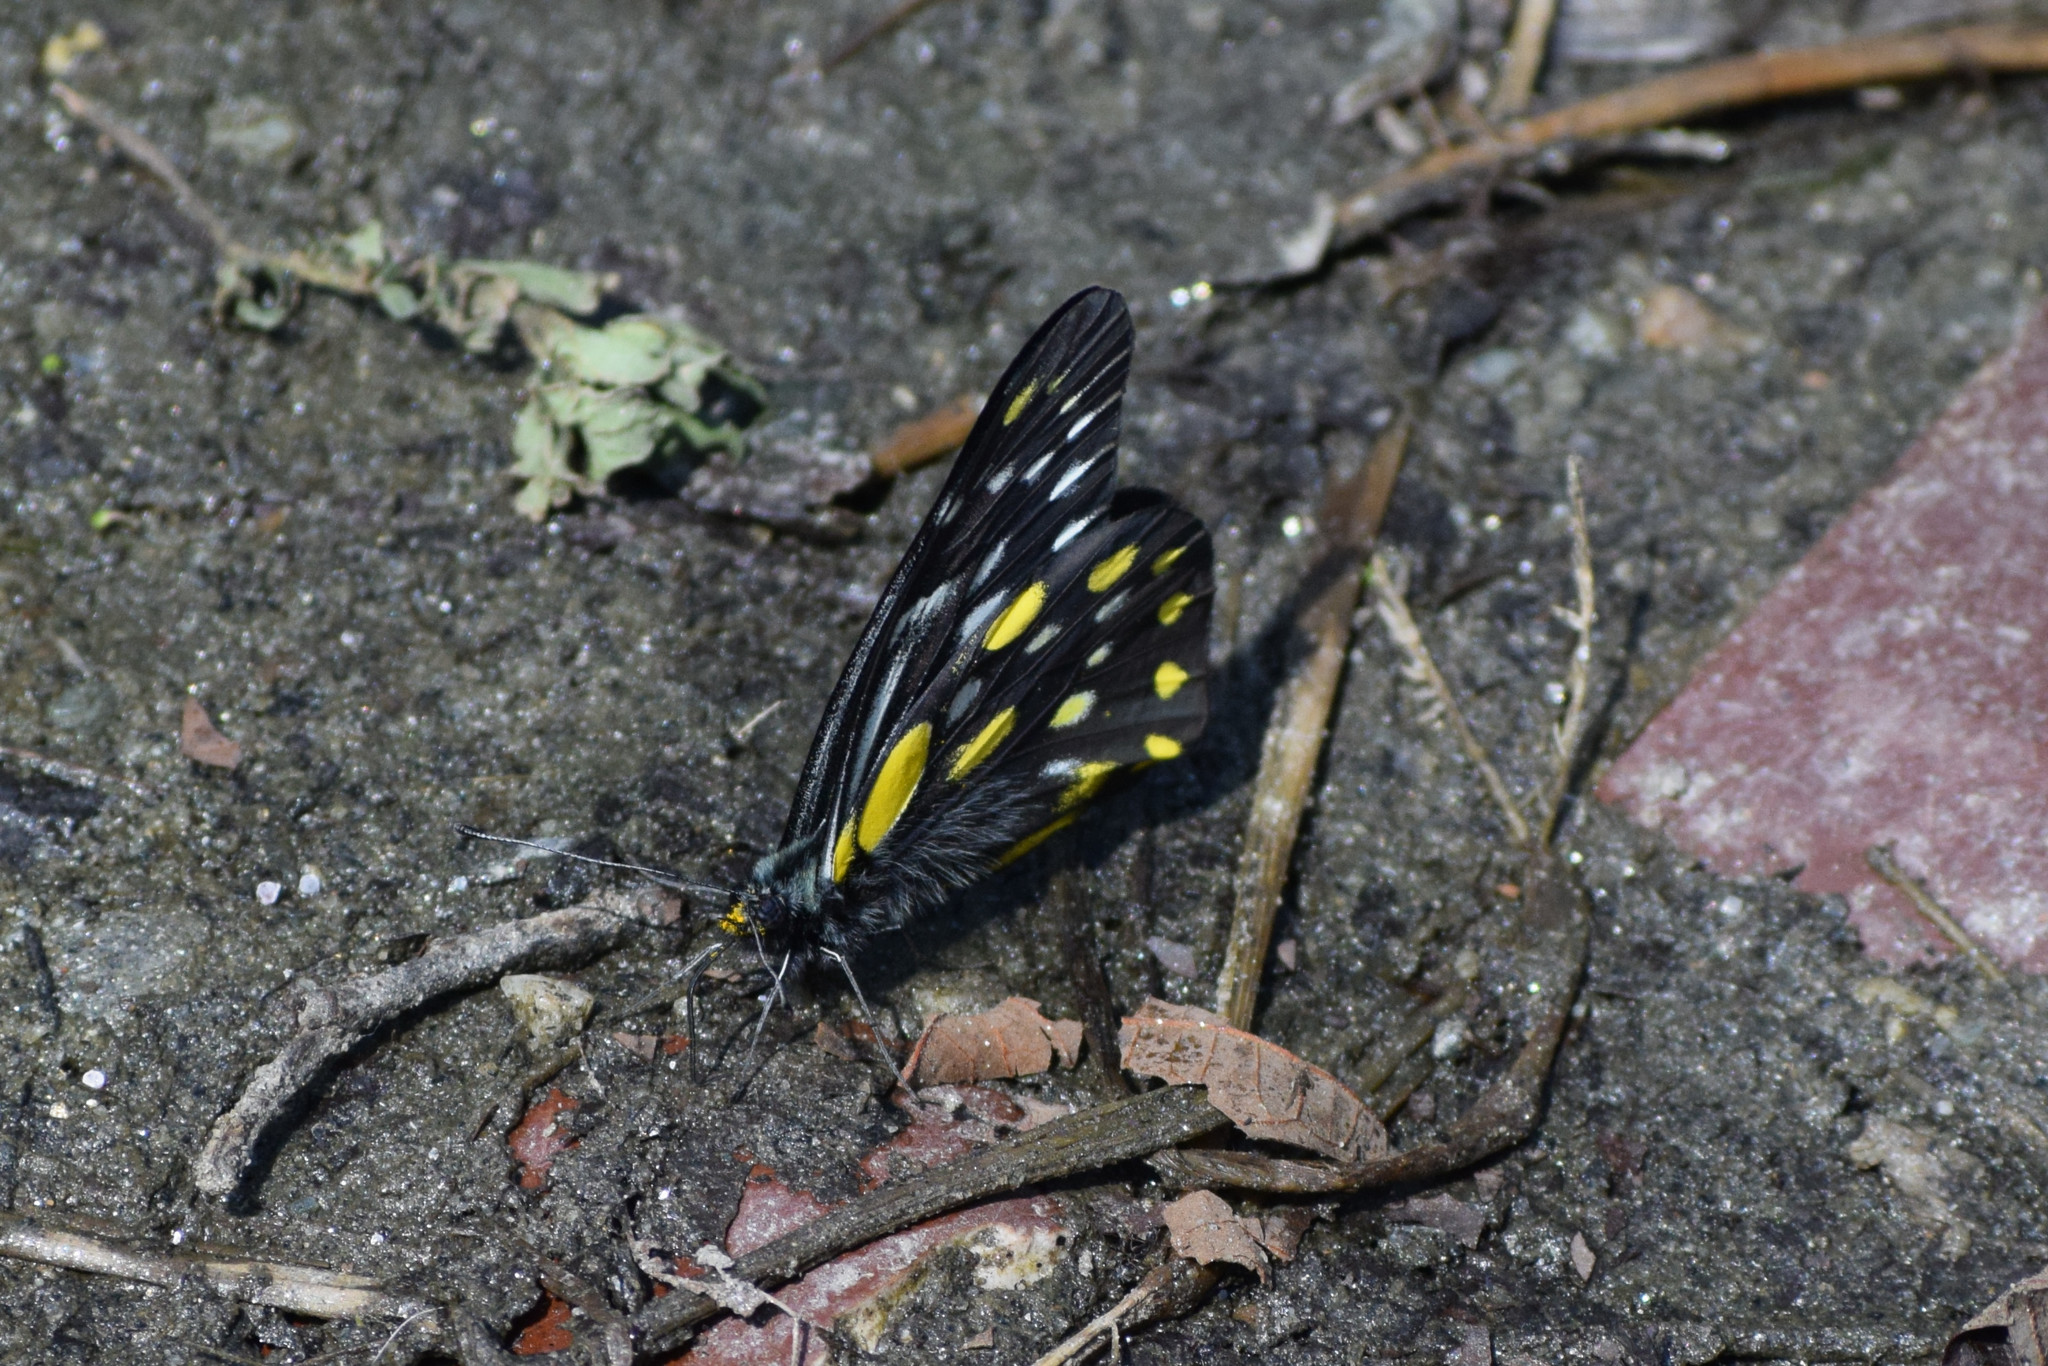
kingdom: Animalia
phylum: Arthropoda
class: Insecta
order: Lepidoptera
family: Pieridae
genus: Delias
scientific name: Delias belladonna
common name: Hill jezebel
